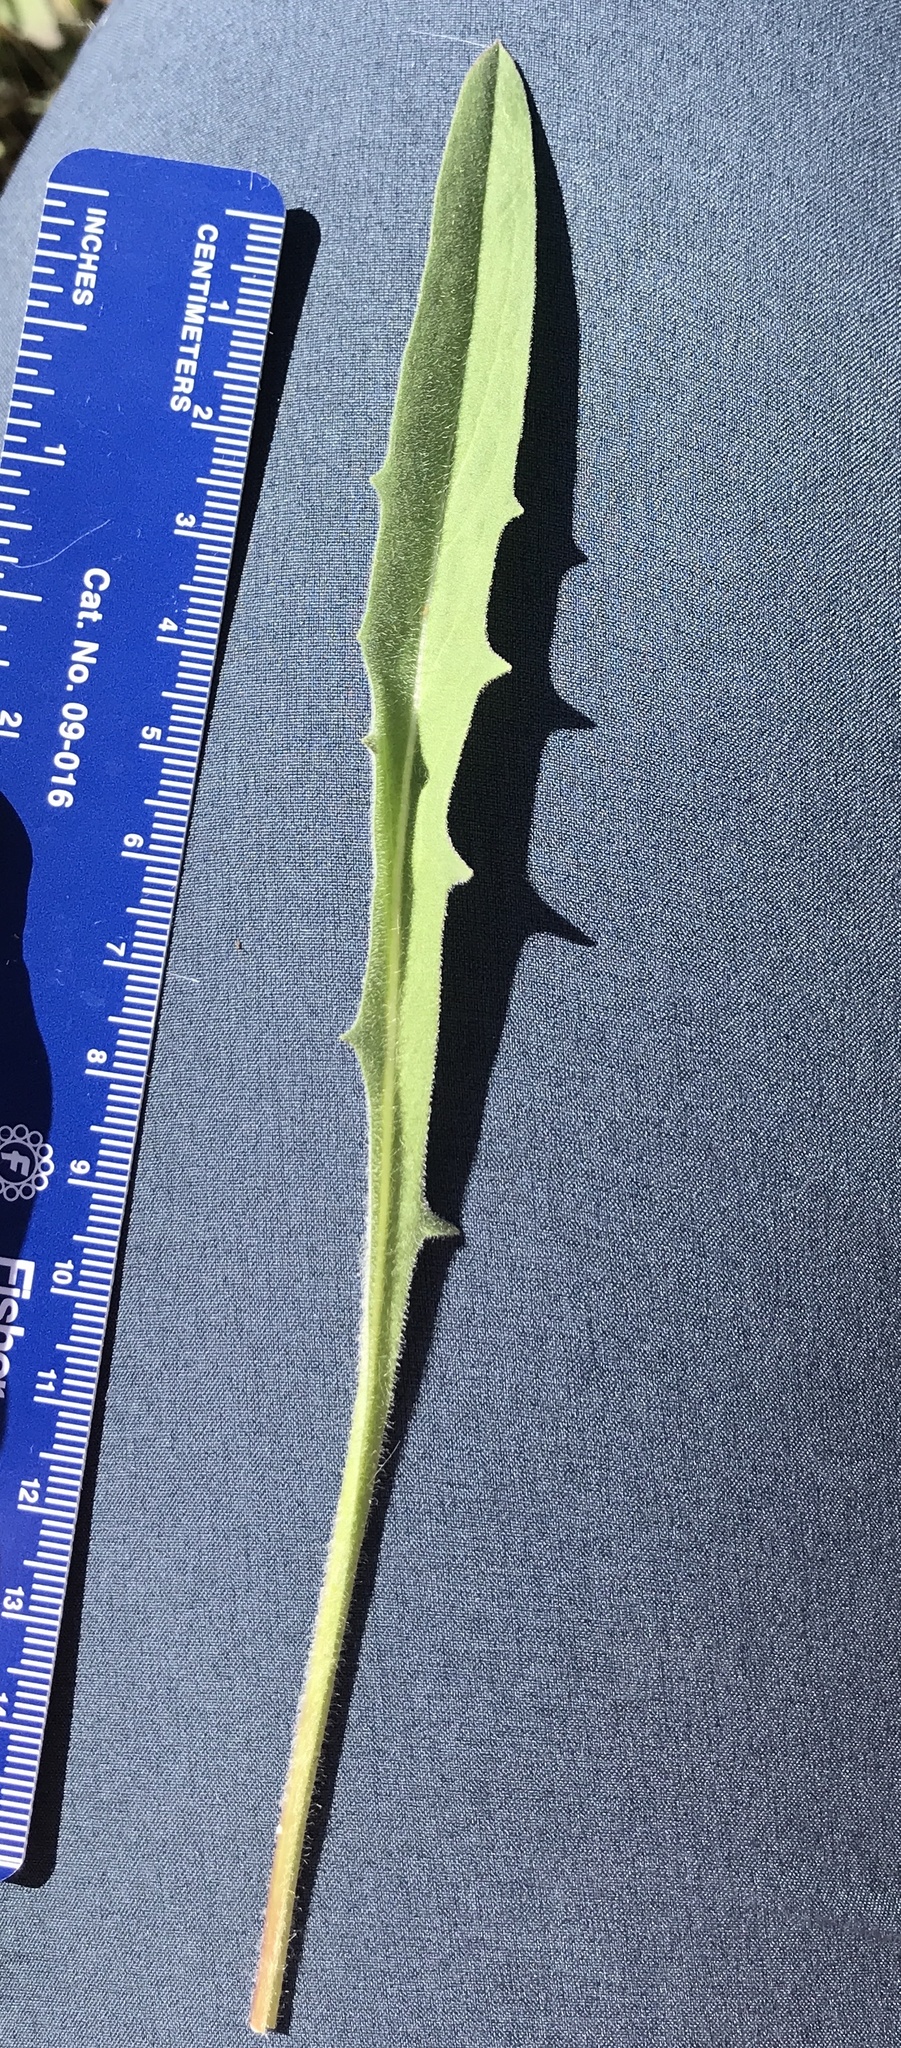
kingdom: Plantae
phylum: Tracheophyta
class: Magnoliopsida
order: Asterales
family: Asteraceae
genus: Agoseris
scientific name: Agoseris grandiflora
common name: Grassland agoseris
